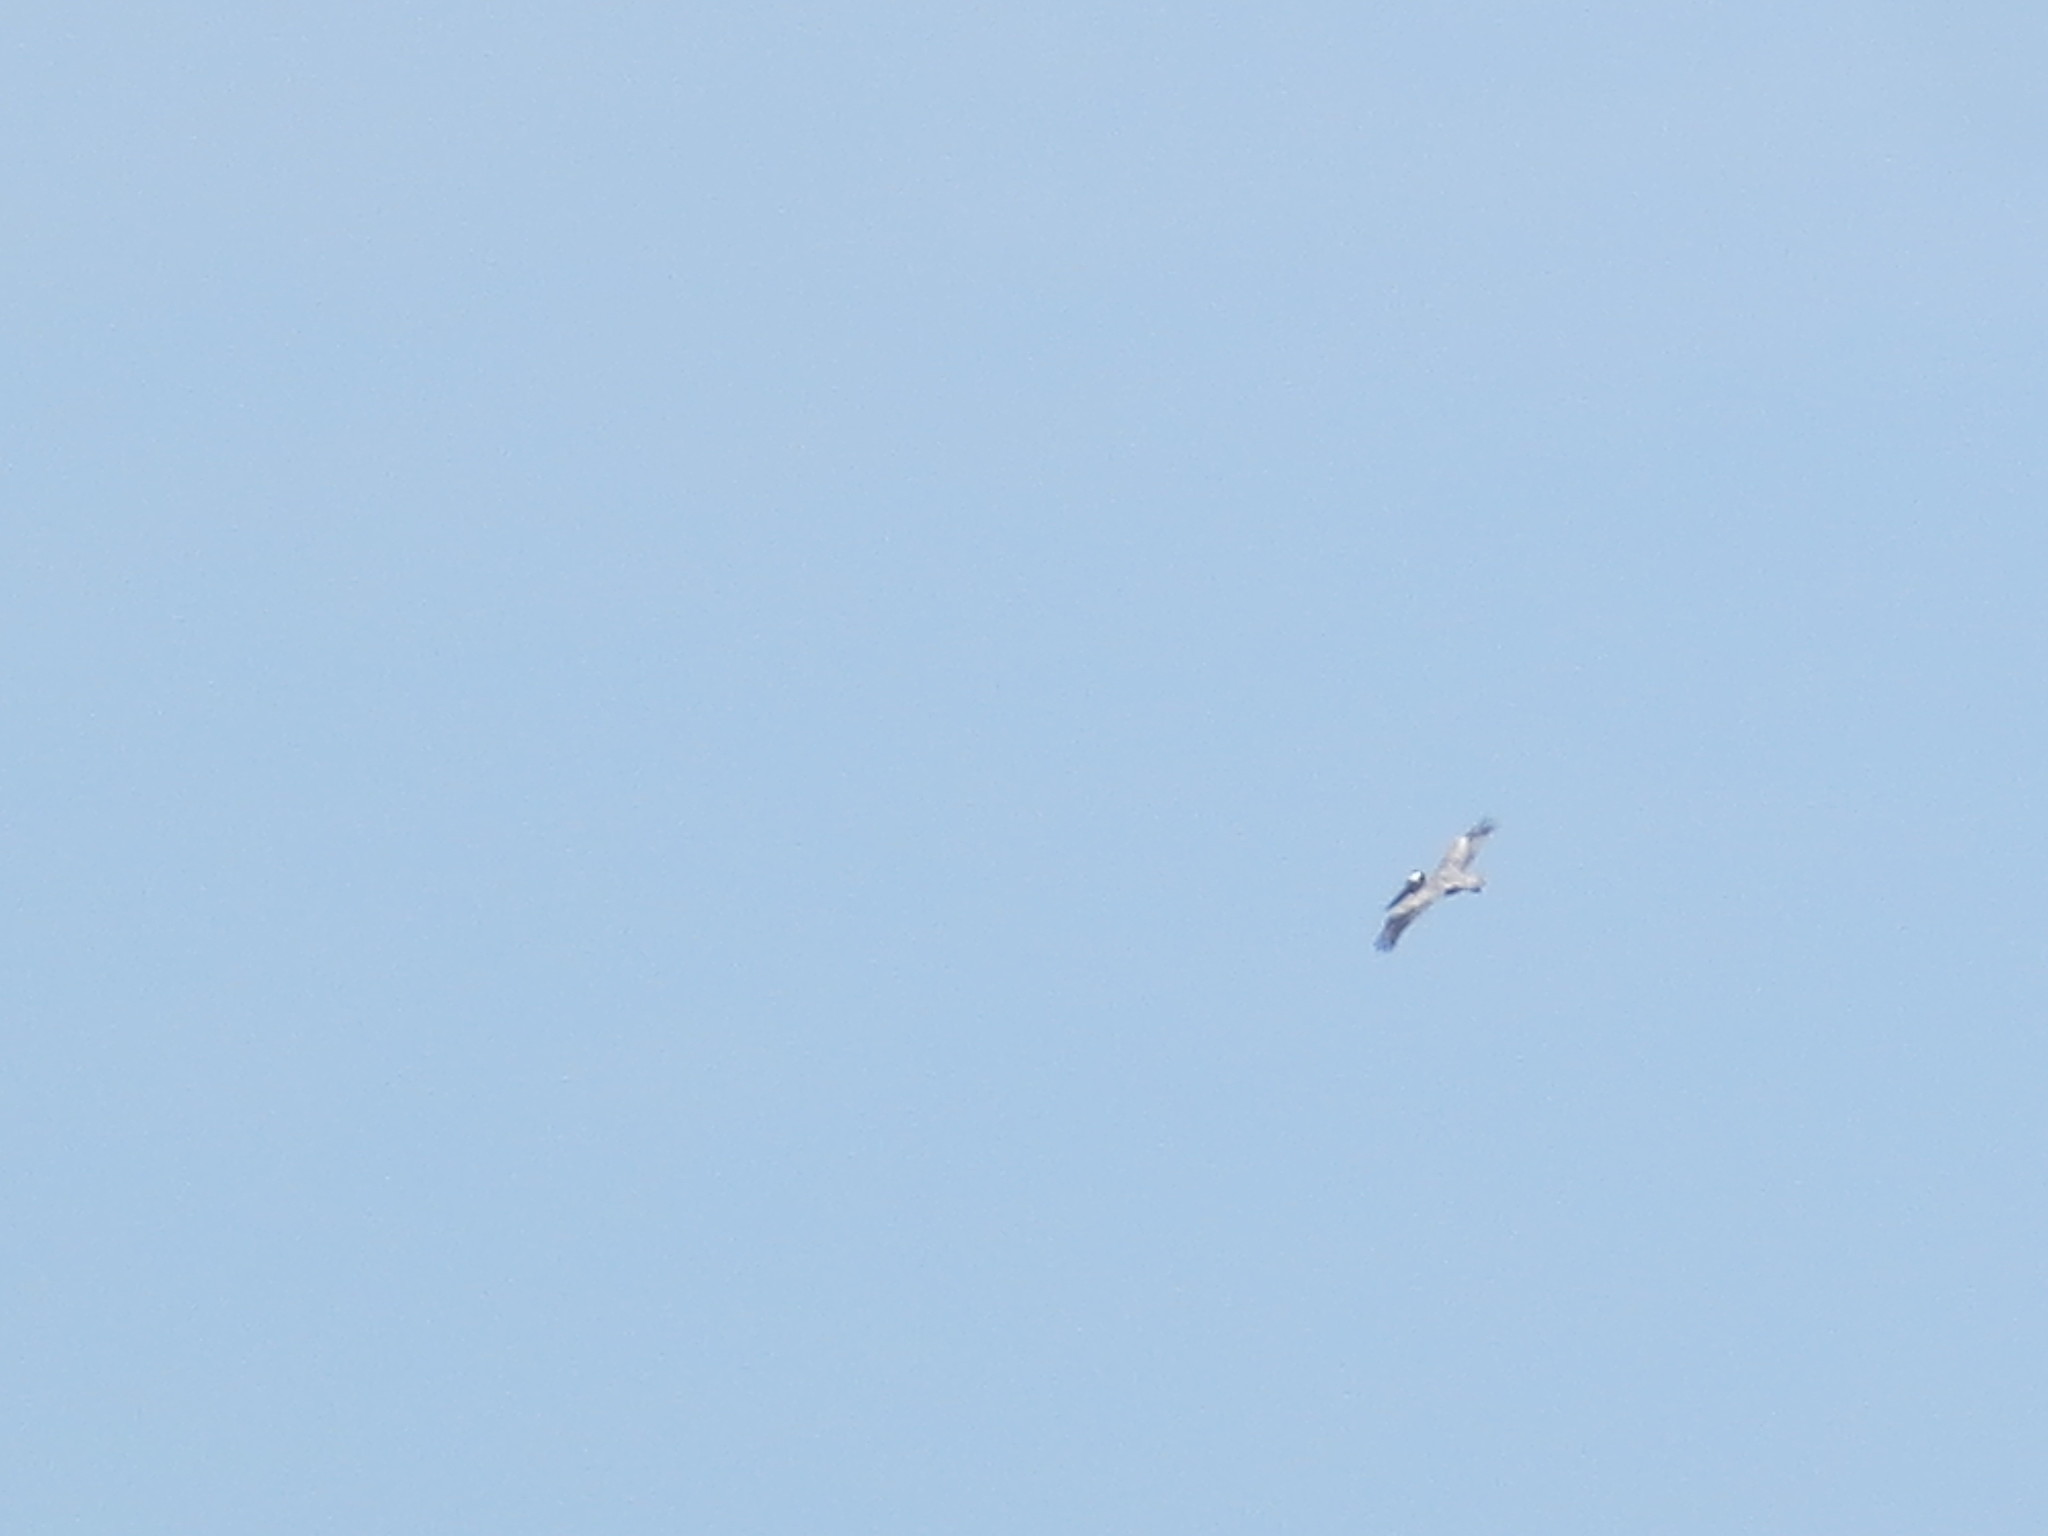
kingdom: Animalia
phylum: Chordata
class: Aves
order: Pelecaniformes
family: Pelecanidae
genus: Pelecanus
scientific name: Pelecanus occidentalis
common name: Brown pelican
